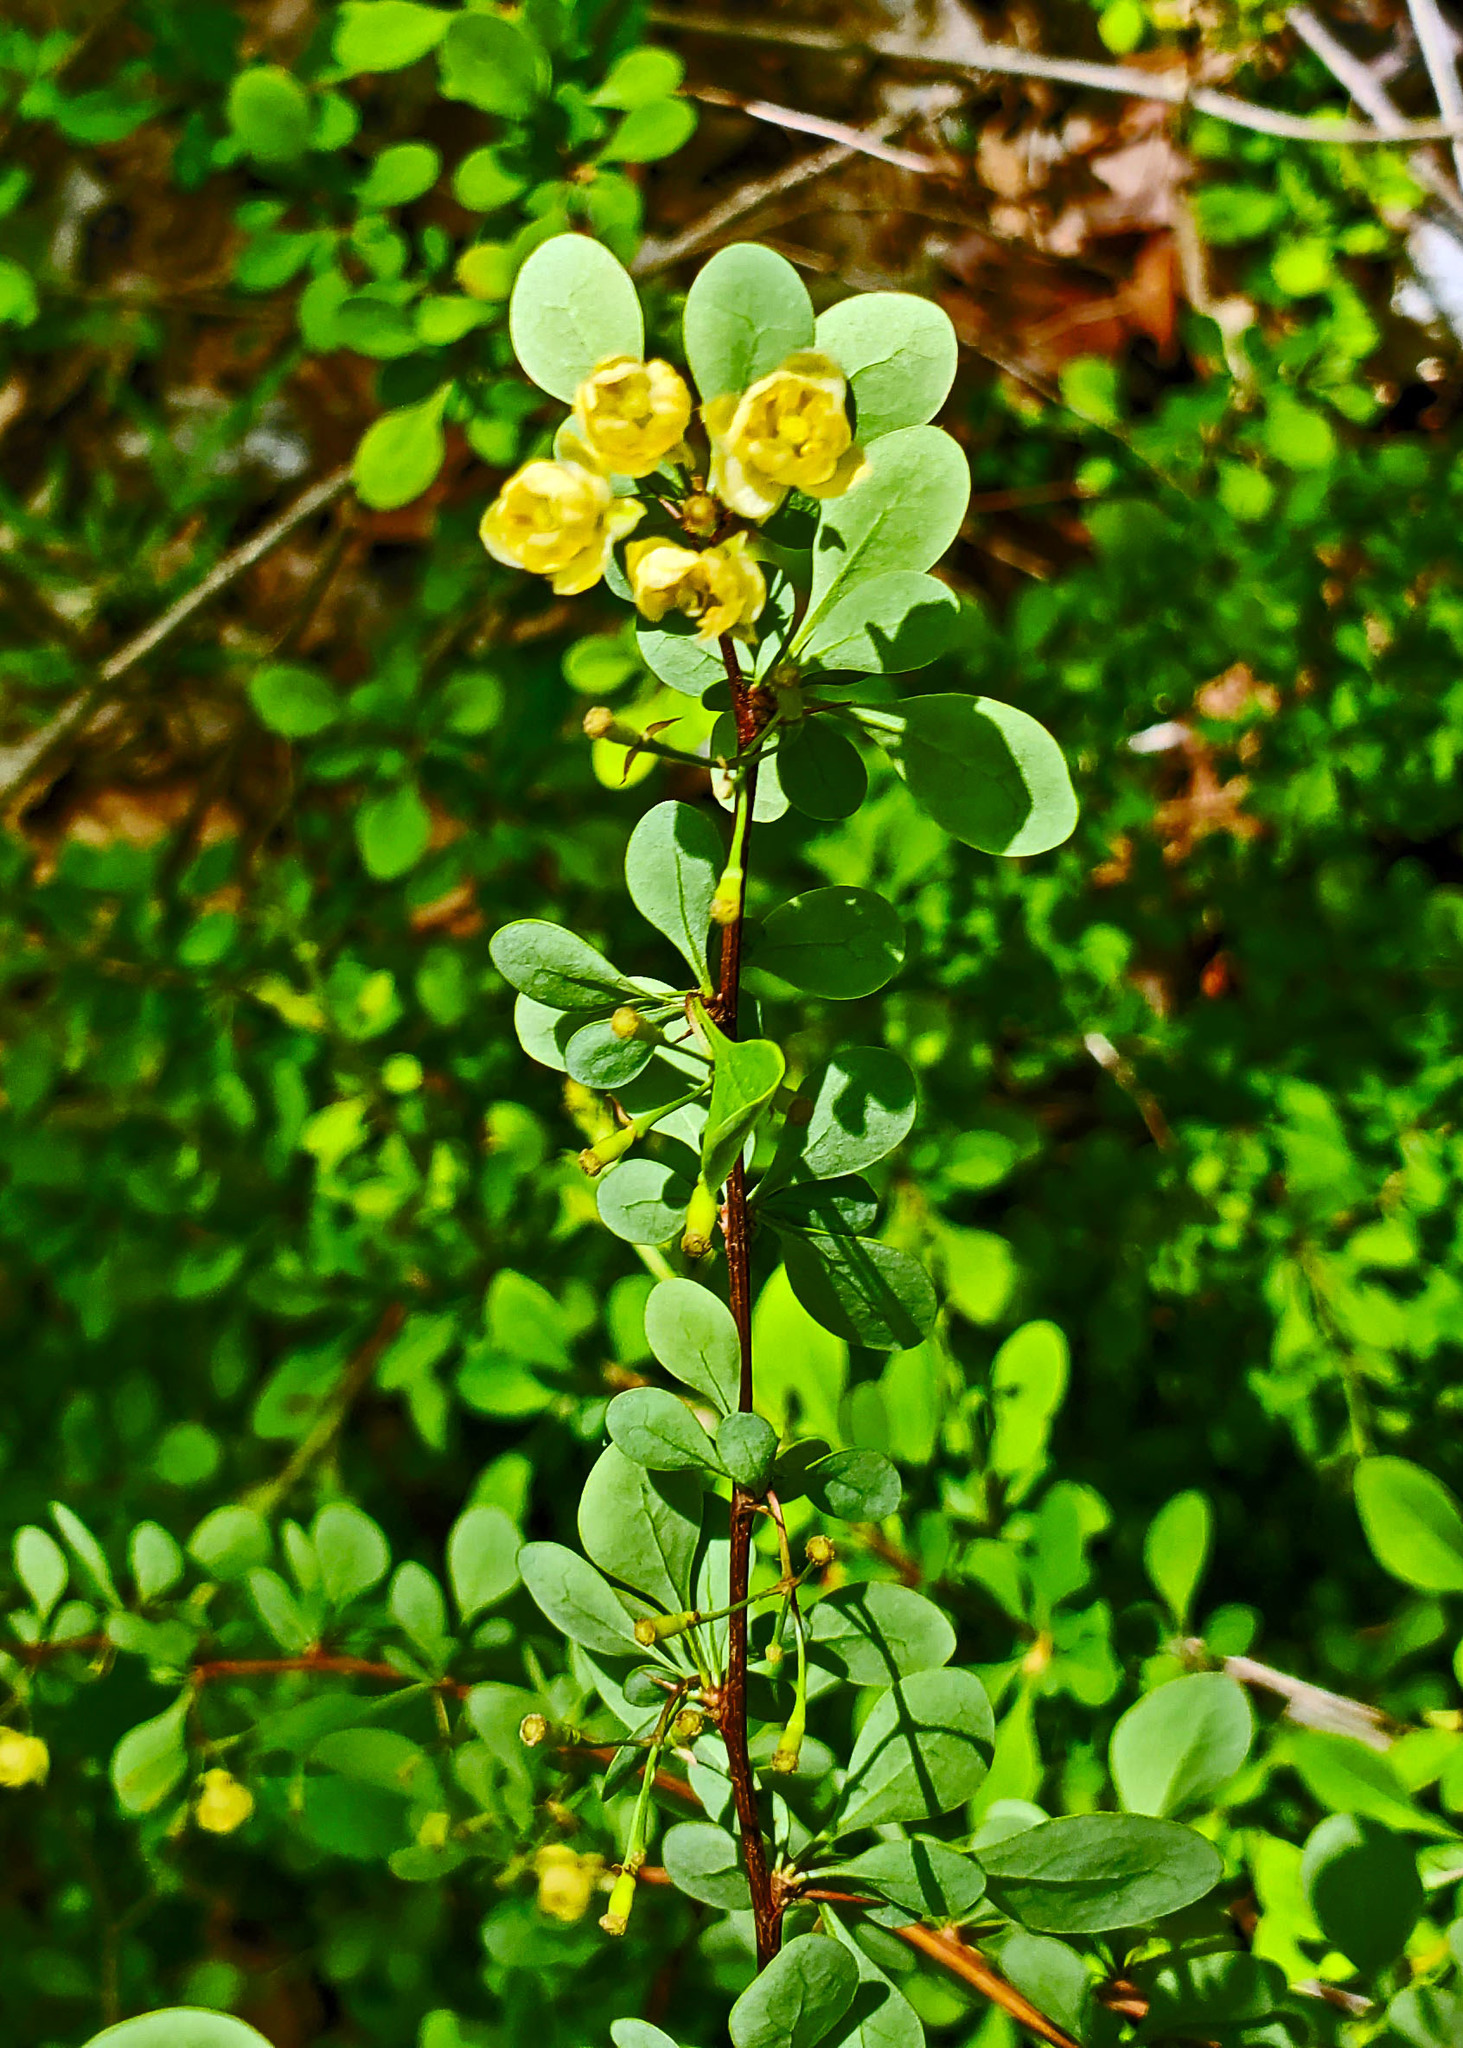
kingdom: Plantae
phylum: Tracheophyta
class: Magnoliopsida
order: Ranunculales
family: Berberidaceae
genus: Berberis
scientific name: Berberis thunbergii
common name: Japanese barberry
